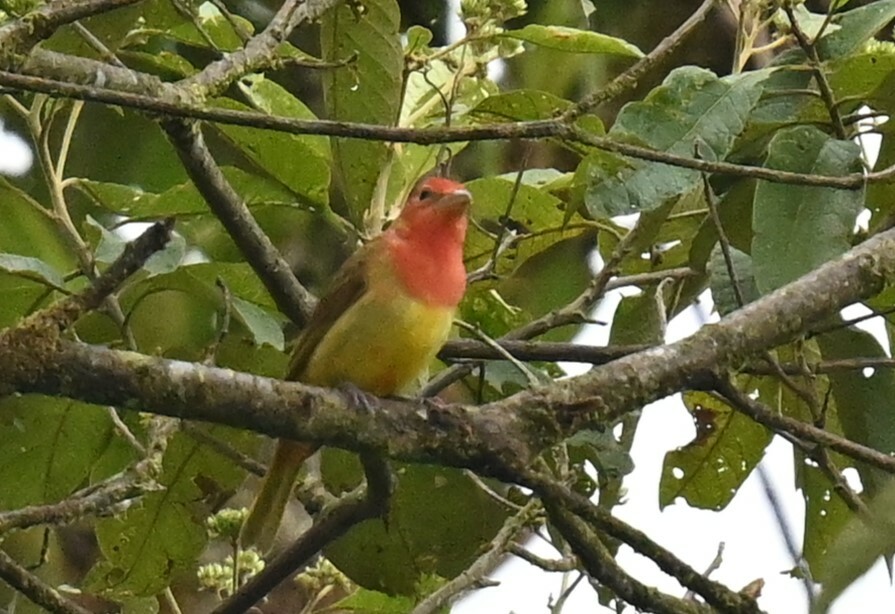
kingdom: Animalia
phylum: Chordata
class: Aves
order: Passeriformes
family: Cardinalidae
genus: Piranga
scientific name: Piranga rubra
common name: Summer tanager
